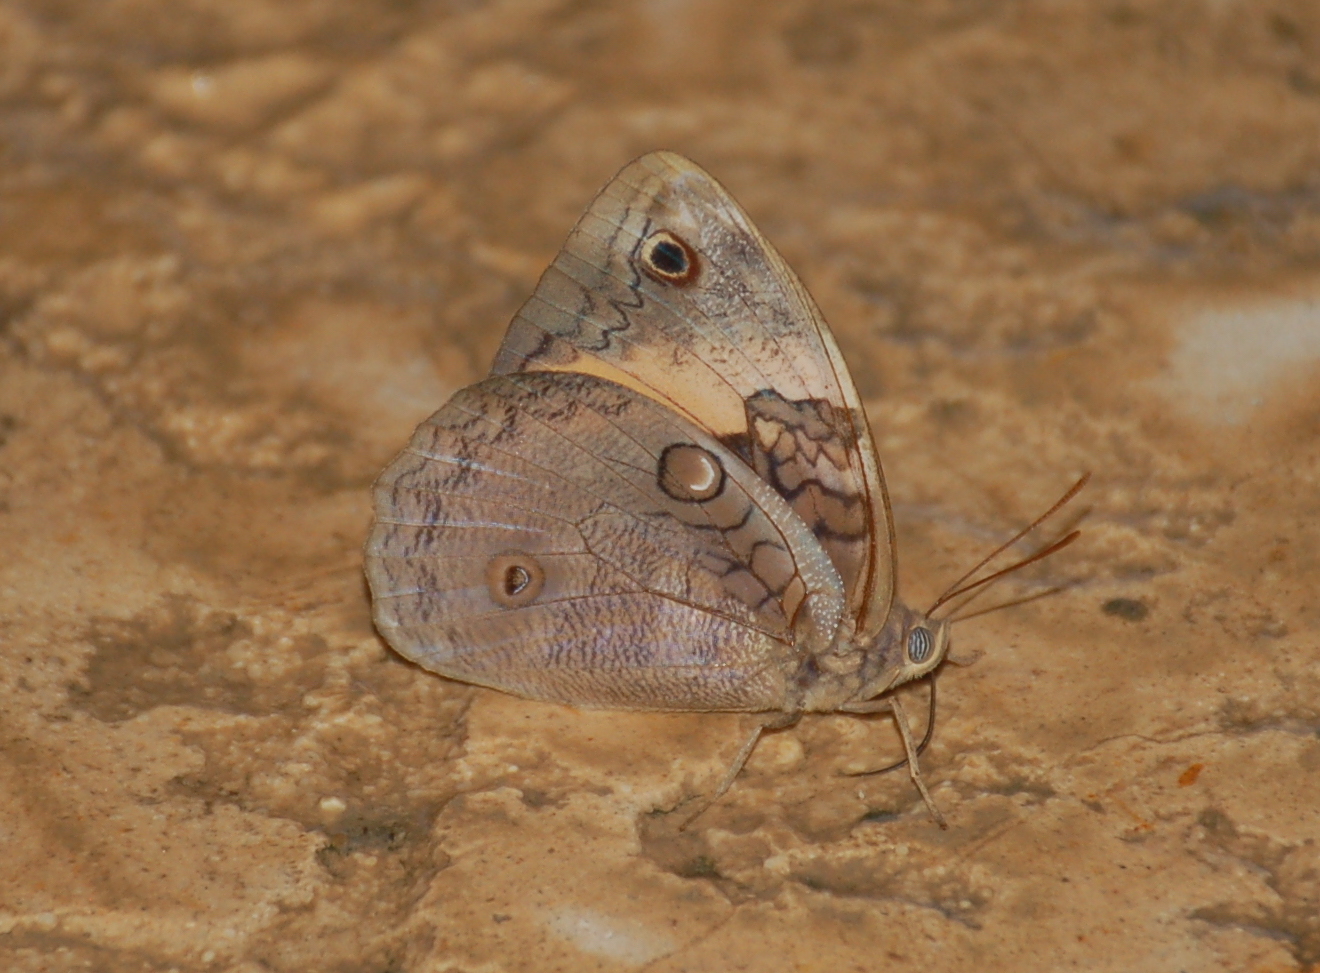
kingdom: Animalia
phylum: Arthropoda
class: Insecta
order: Lepidoptera
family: Nymphalidae
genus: Opsiphanes
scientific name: Opsiphanes cassina
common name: Split-banded owl-butterfly
